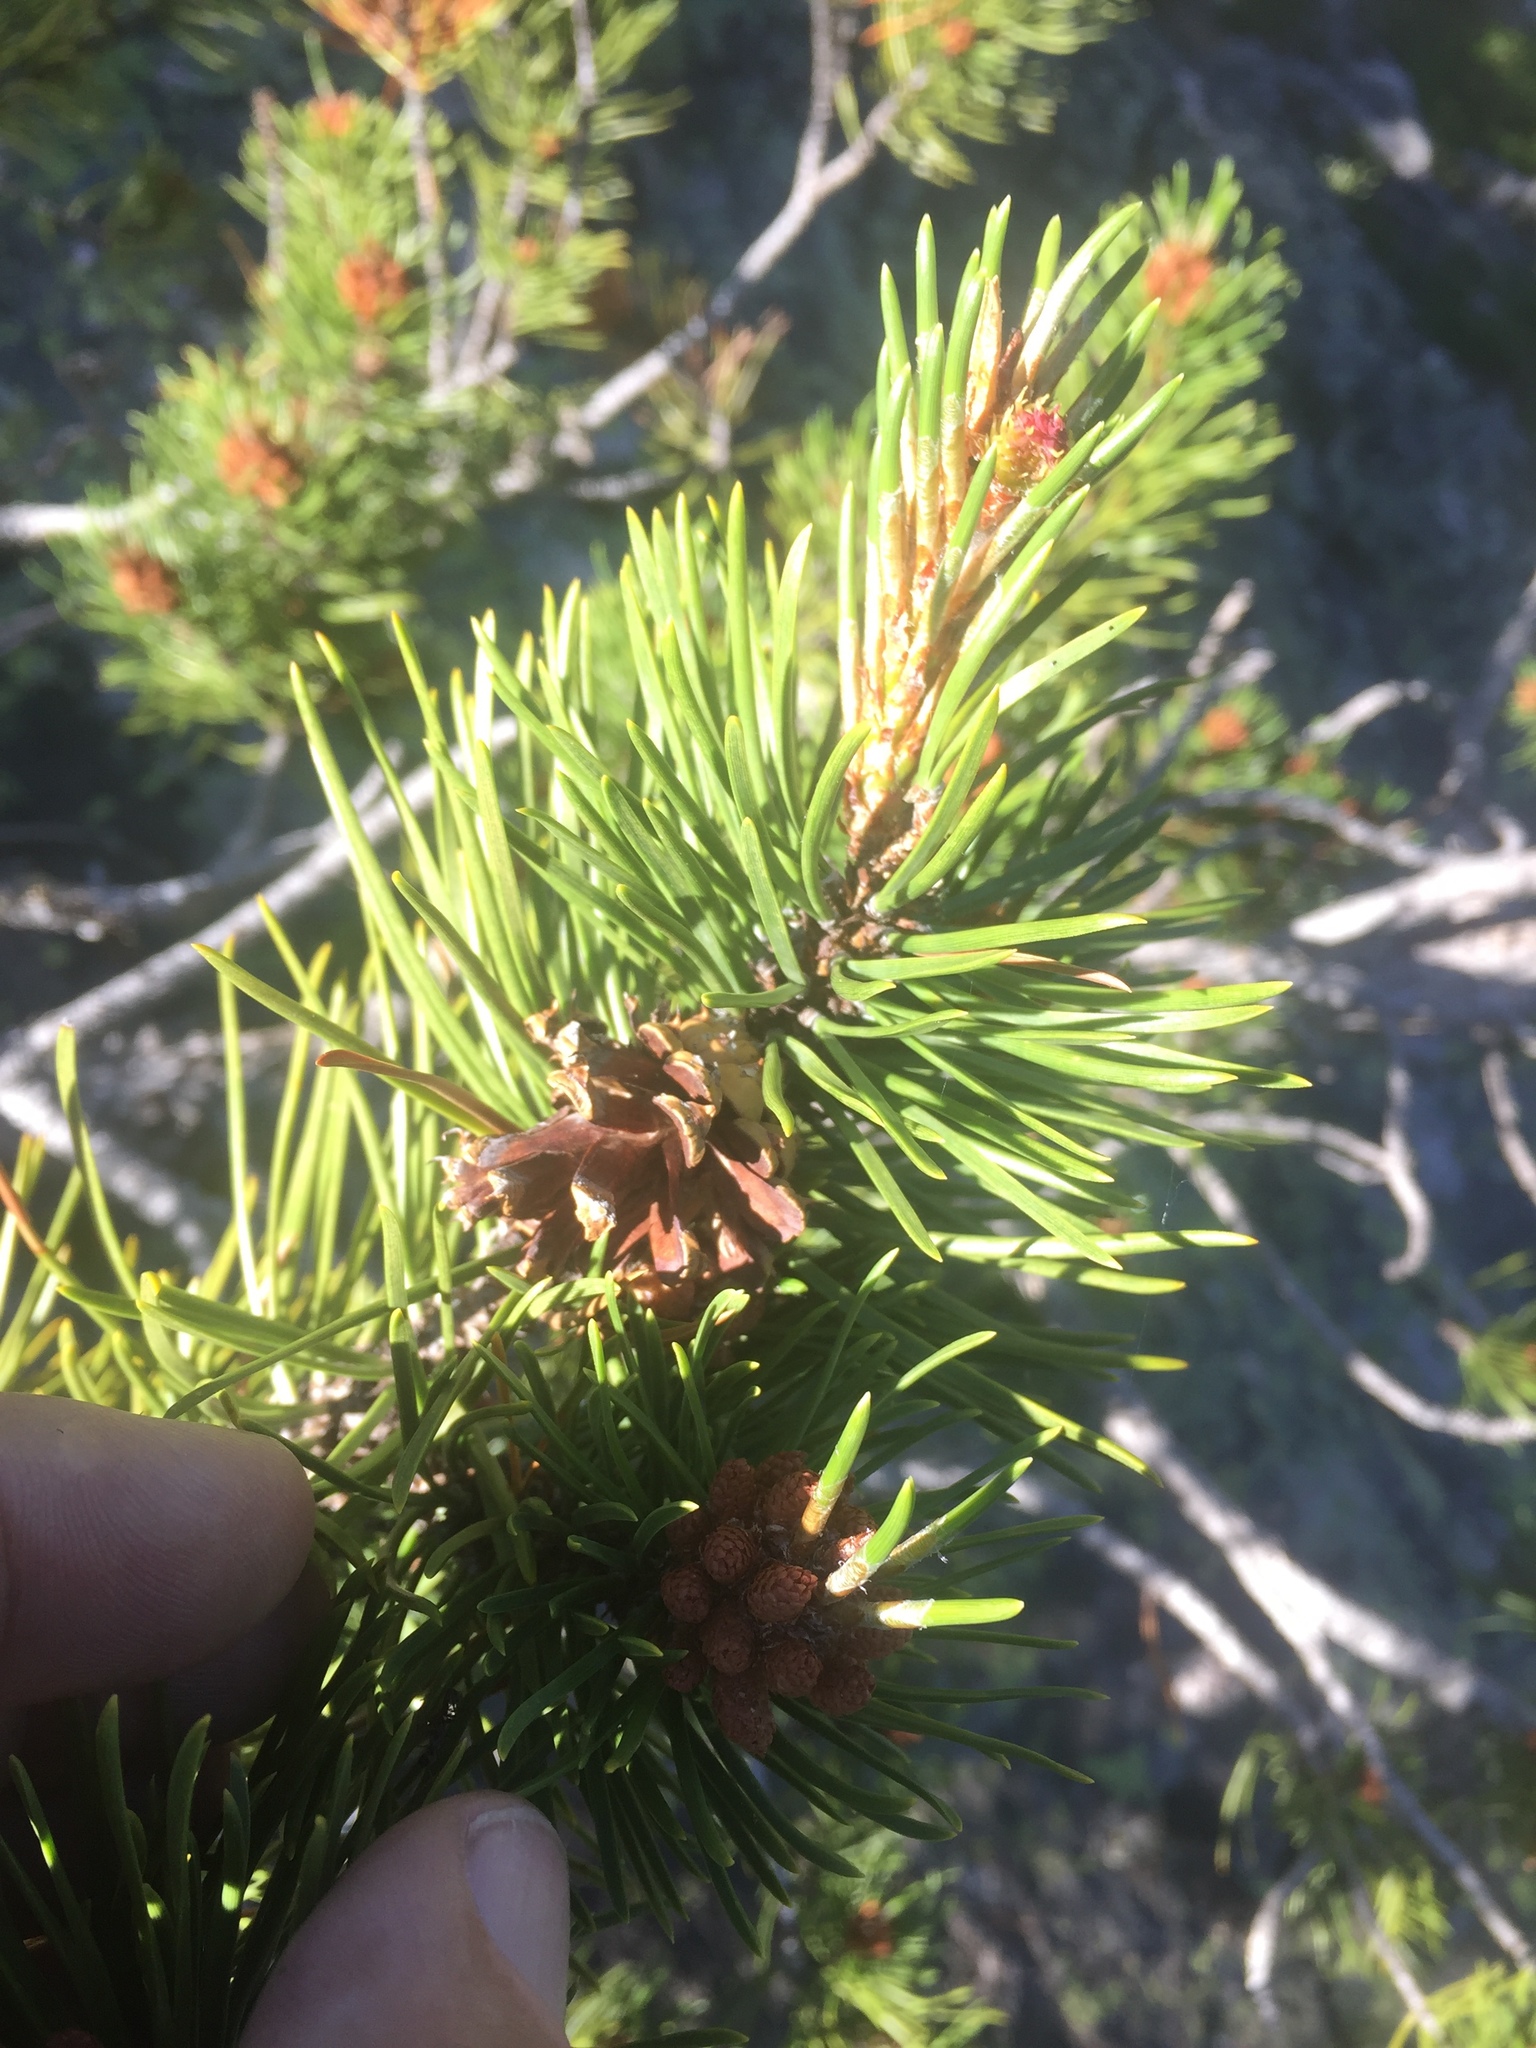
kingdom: Plantae
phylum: Tracheophyta
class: Pinopsida
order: Pinales
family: Pinaceae
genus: Pinus
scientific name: Pinus contorta
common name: Lodgepole pine
